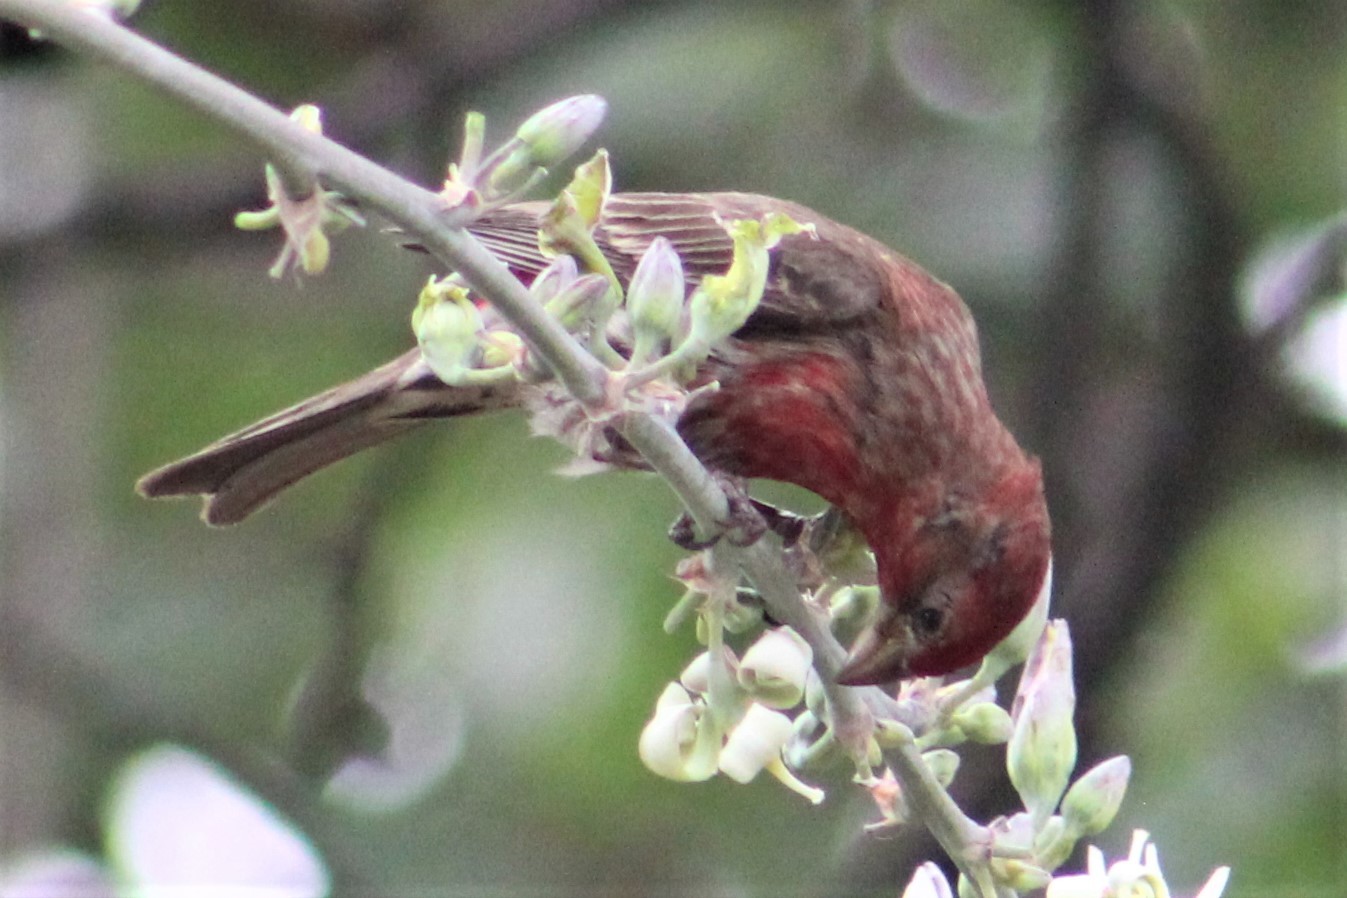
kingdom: Animalia
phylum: Chordata
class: Aves
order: Passeriformes
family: Fringillidae
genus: Haemorhous
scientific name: Haemorhous mexicanus
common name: House finch
